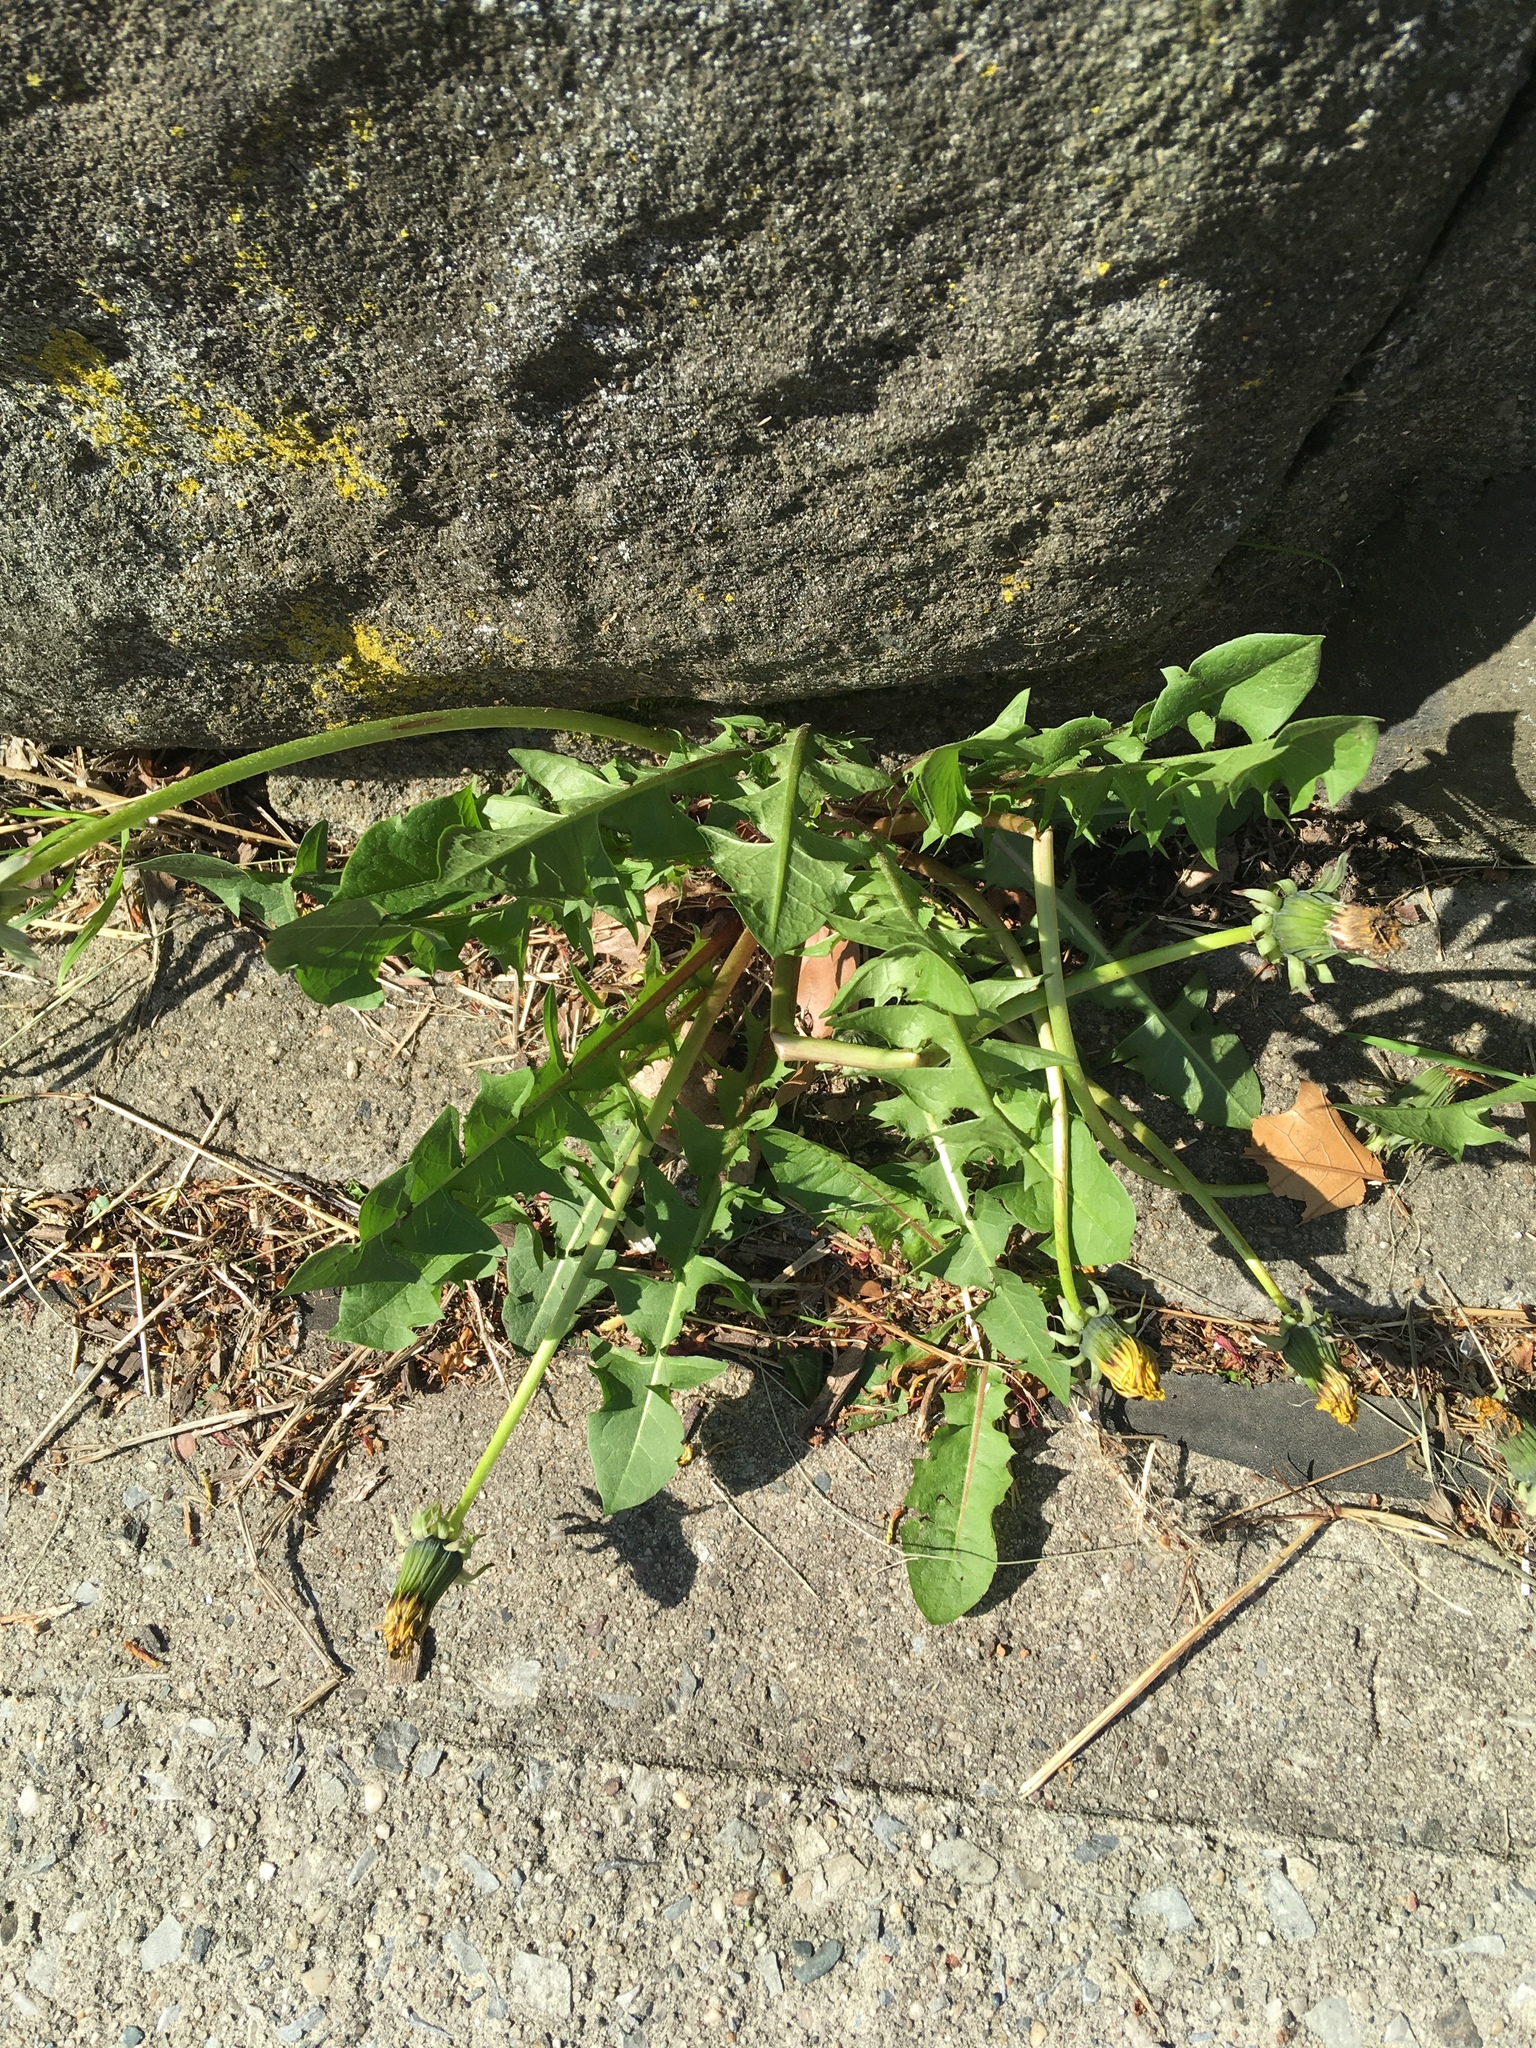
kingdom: Plantae
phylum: Tracheophyta
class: Magnoliopsida
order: Asterales
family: Asteraceae
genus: Taraxacum
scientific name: Taraxacum officinale
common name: Common dandelion
